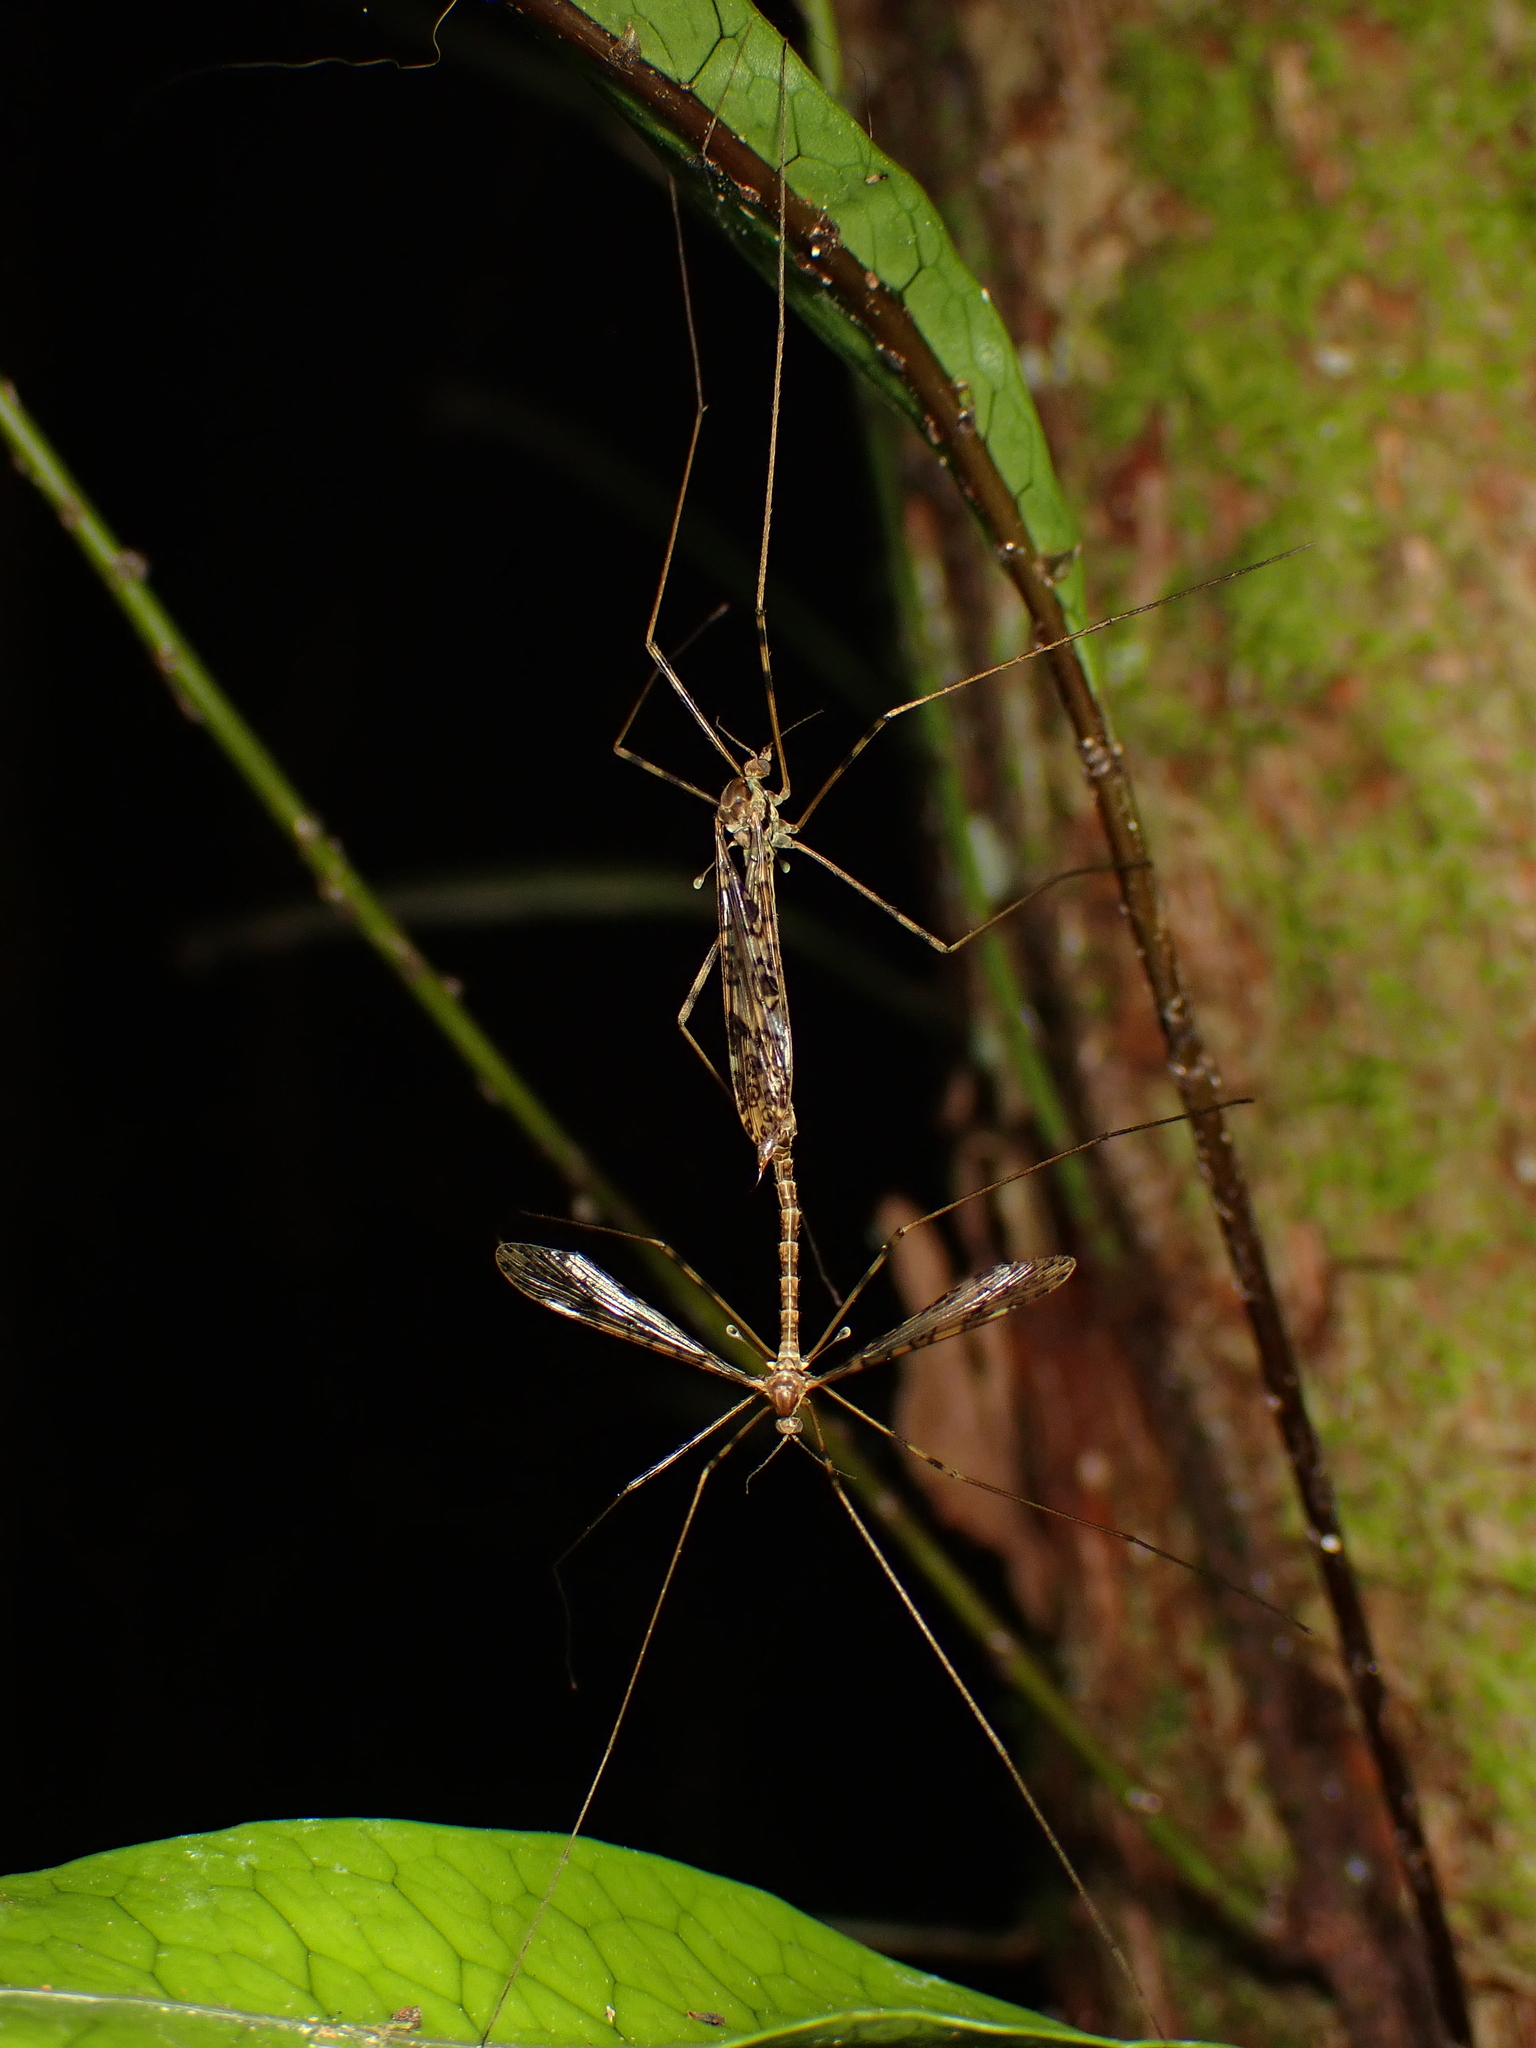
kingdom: Animalia
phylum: Arthropoda
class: Insecta
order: Diptera
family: Limoniidae
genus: Austrolimnophila
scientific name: Austrolimnophila argus
